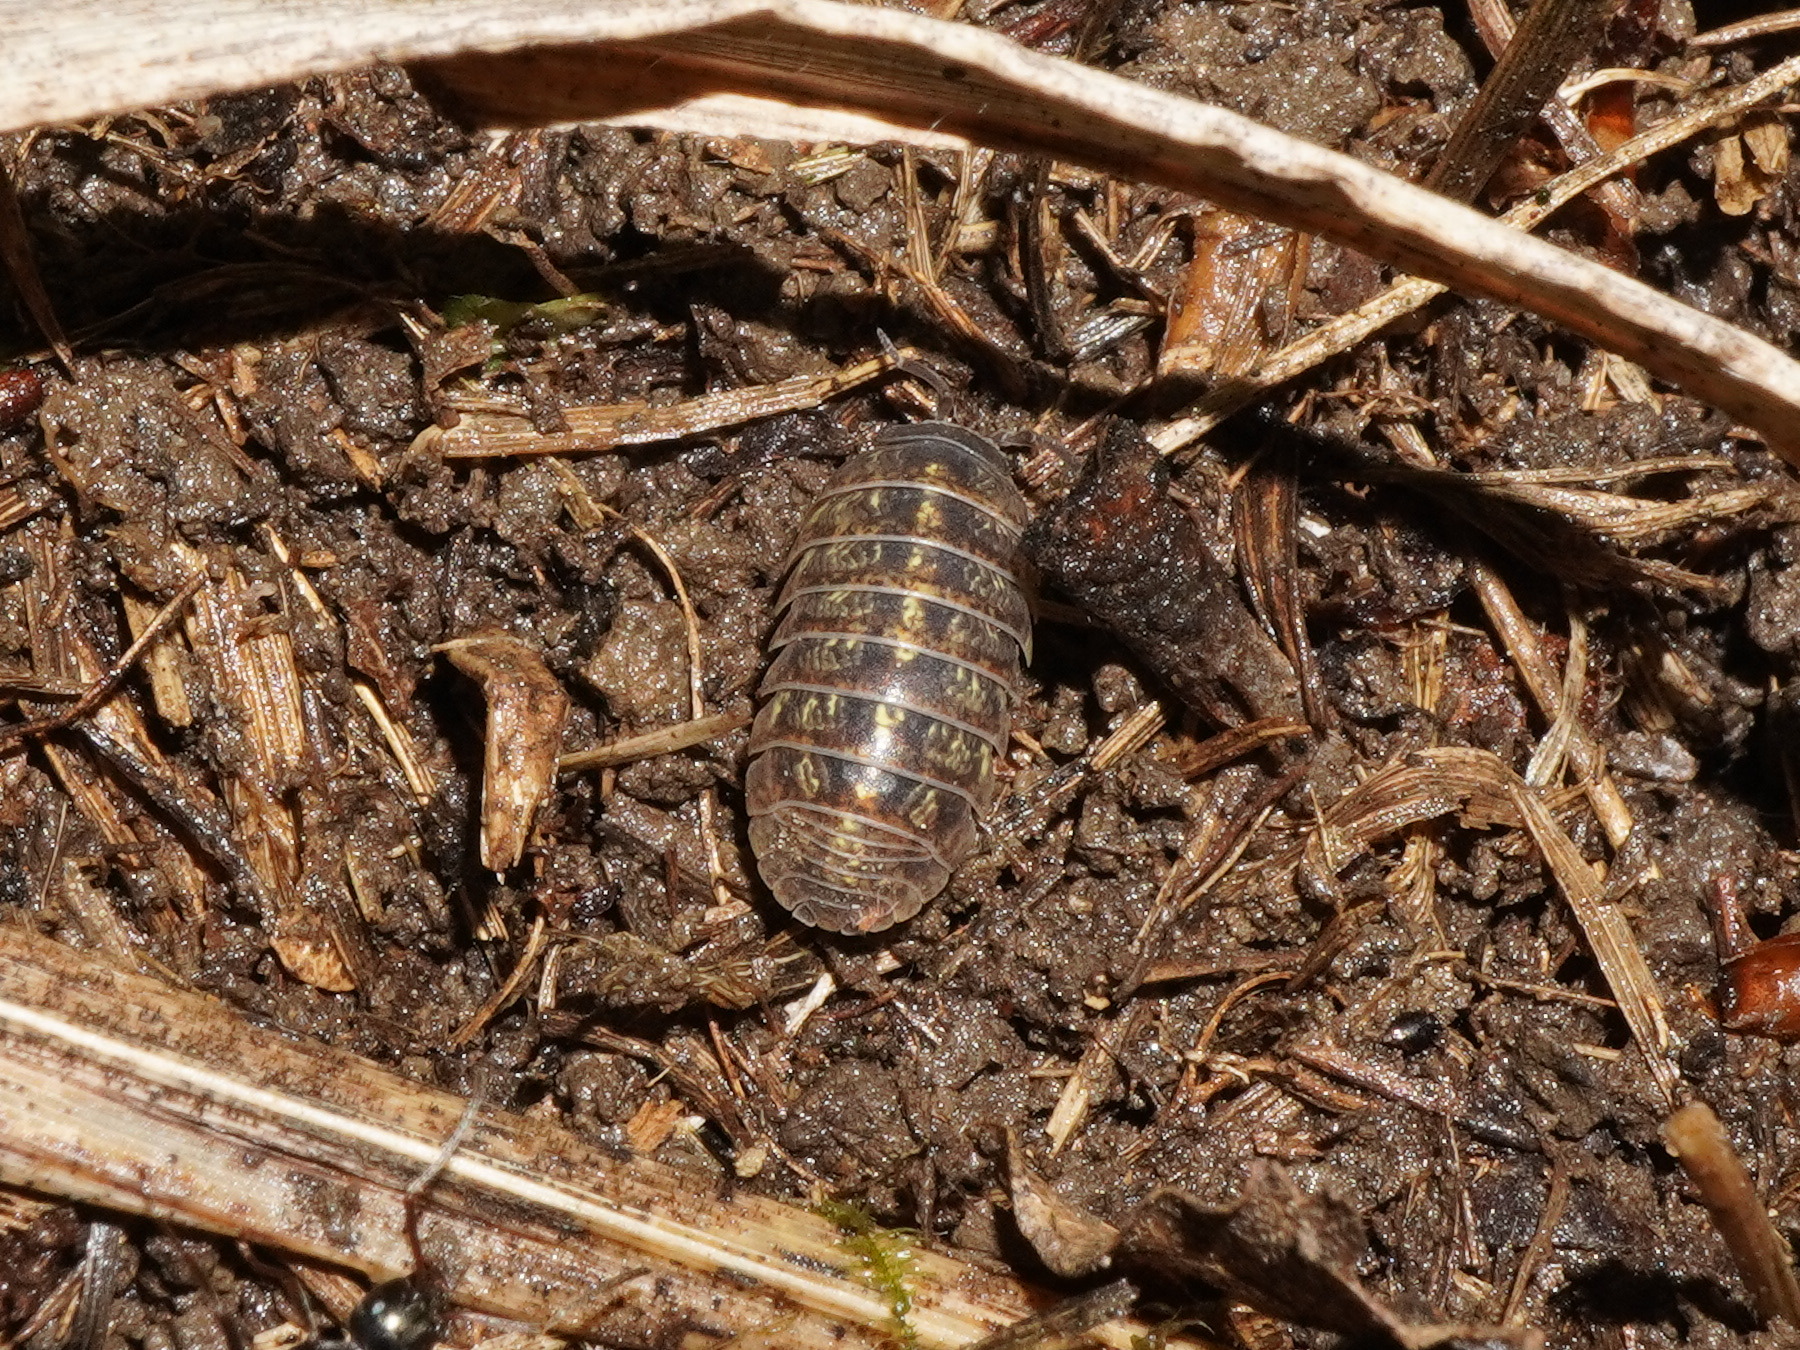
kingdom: Animalia
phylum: Arthropoda
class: Malacostraca
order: Isopoda
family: Armadillidiidae
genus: Armadillidium
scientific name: Armadillidium vulgare
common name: Common pill woodlouse
